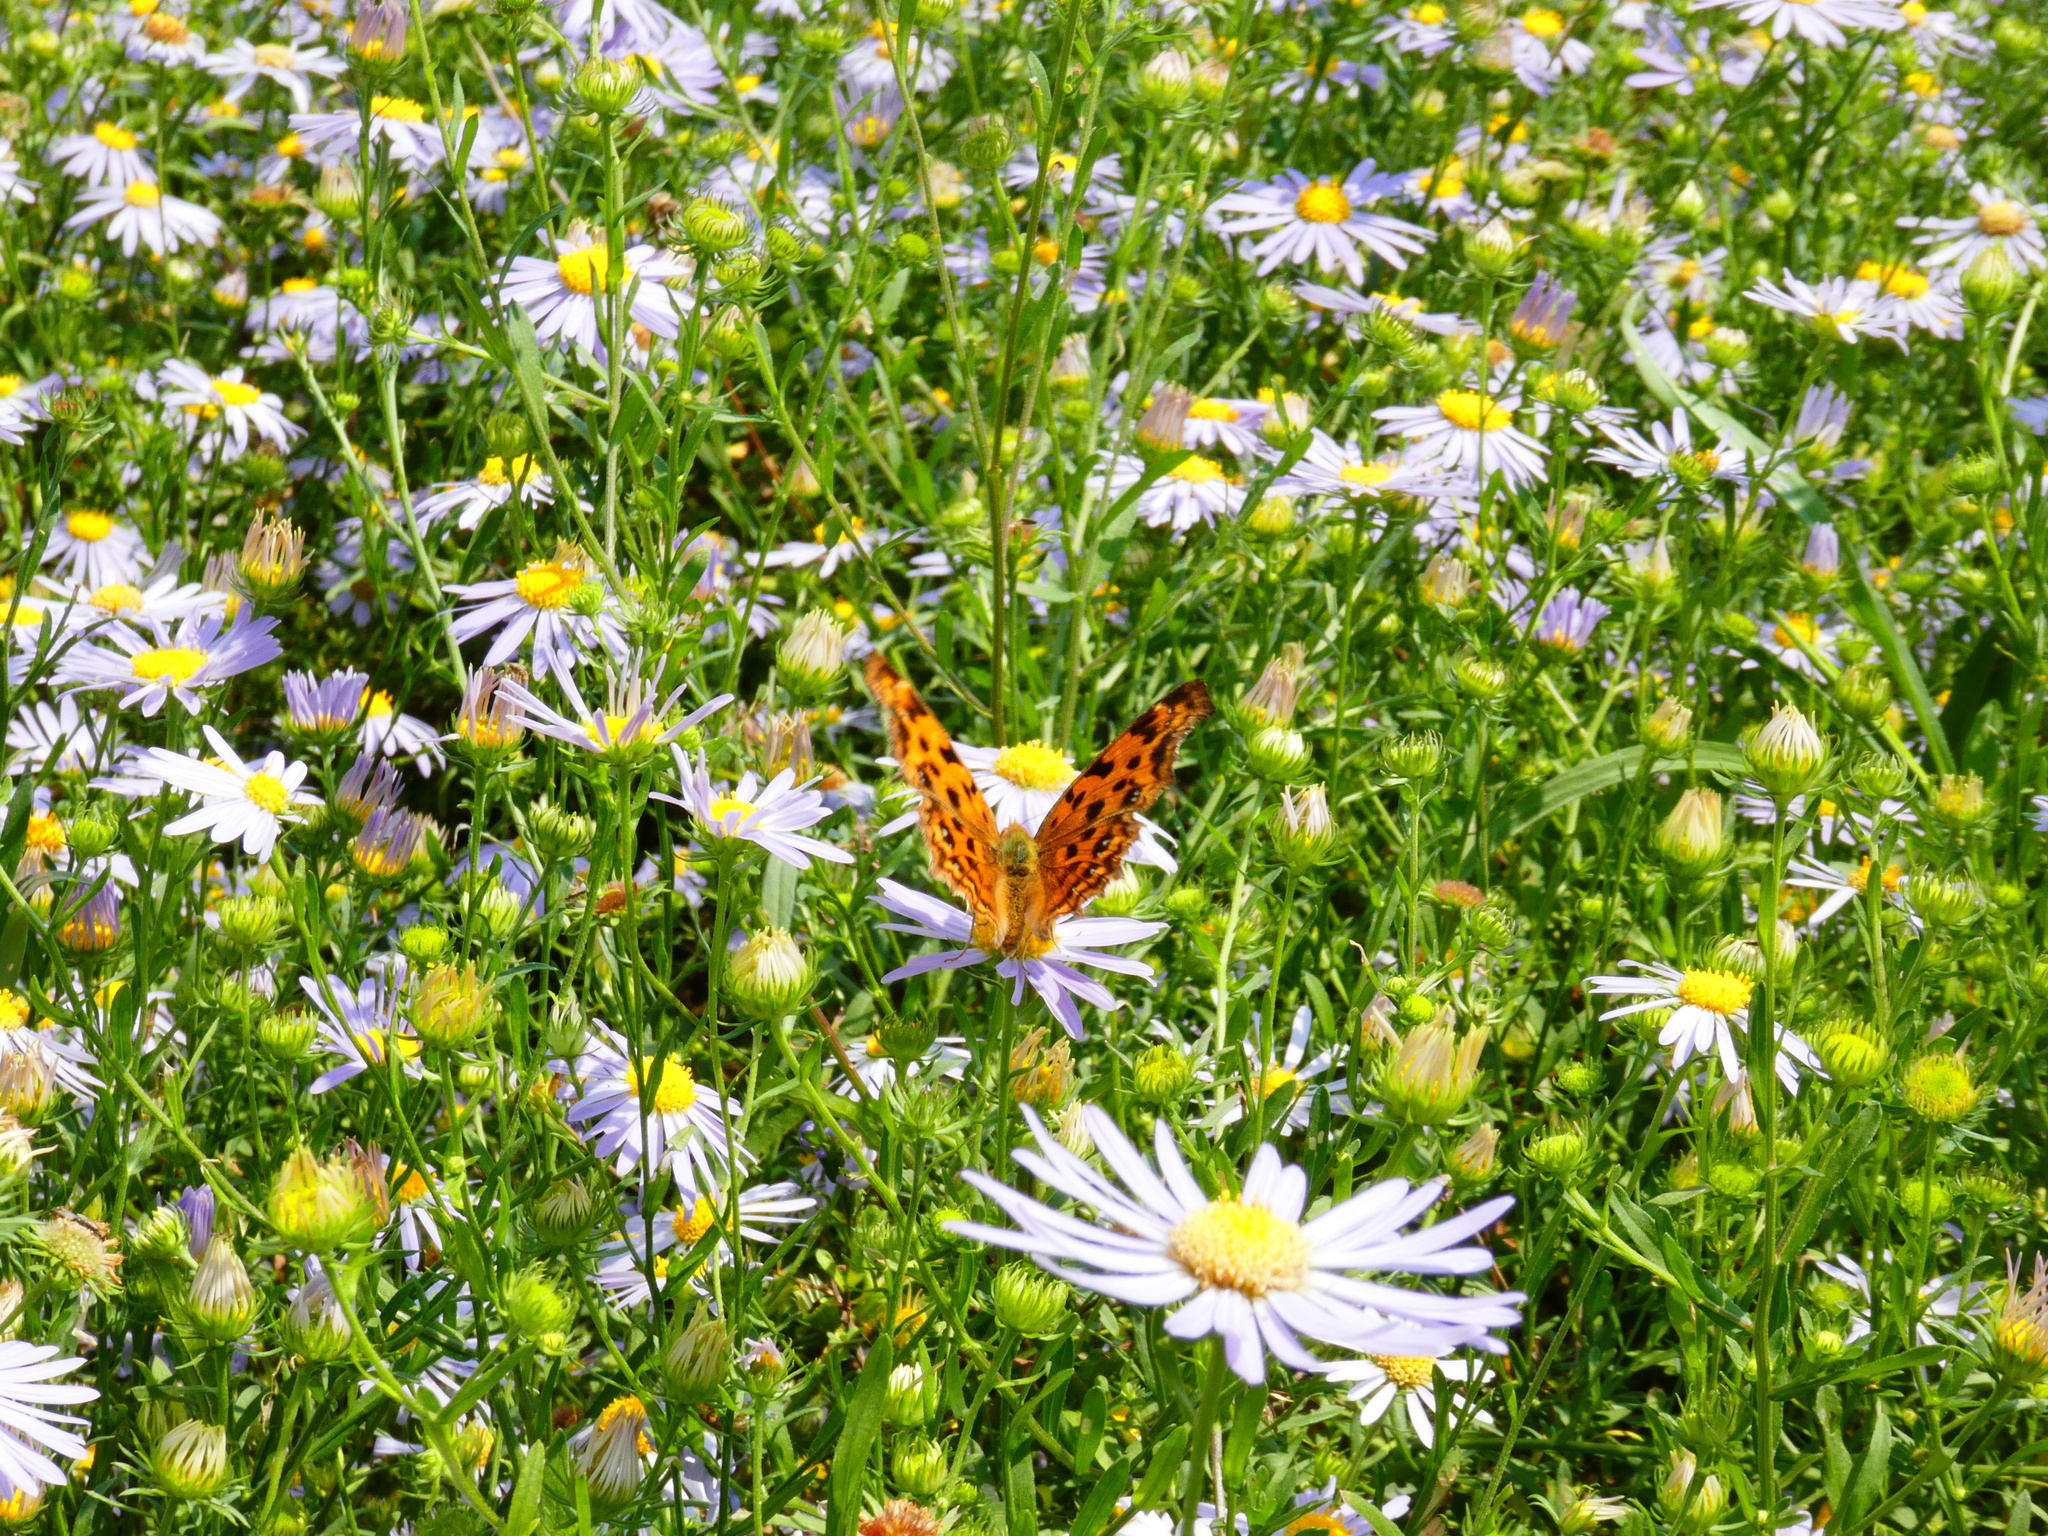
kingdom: Animalia
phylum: Arthropoda
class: Insecta
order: Lepidoptera
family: Nymphalidae
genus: Polygonia
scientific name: Polygonia c-aureum
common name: Asian comma
